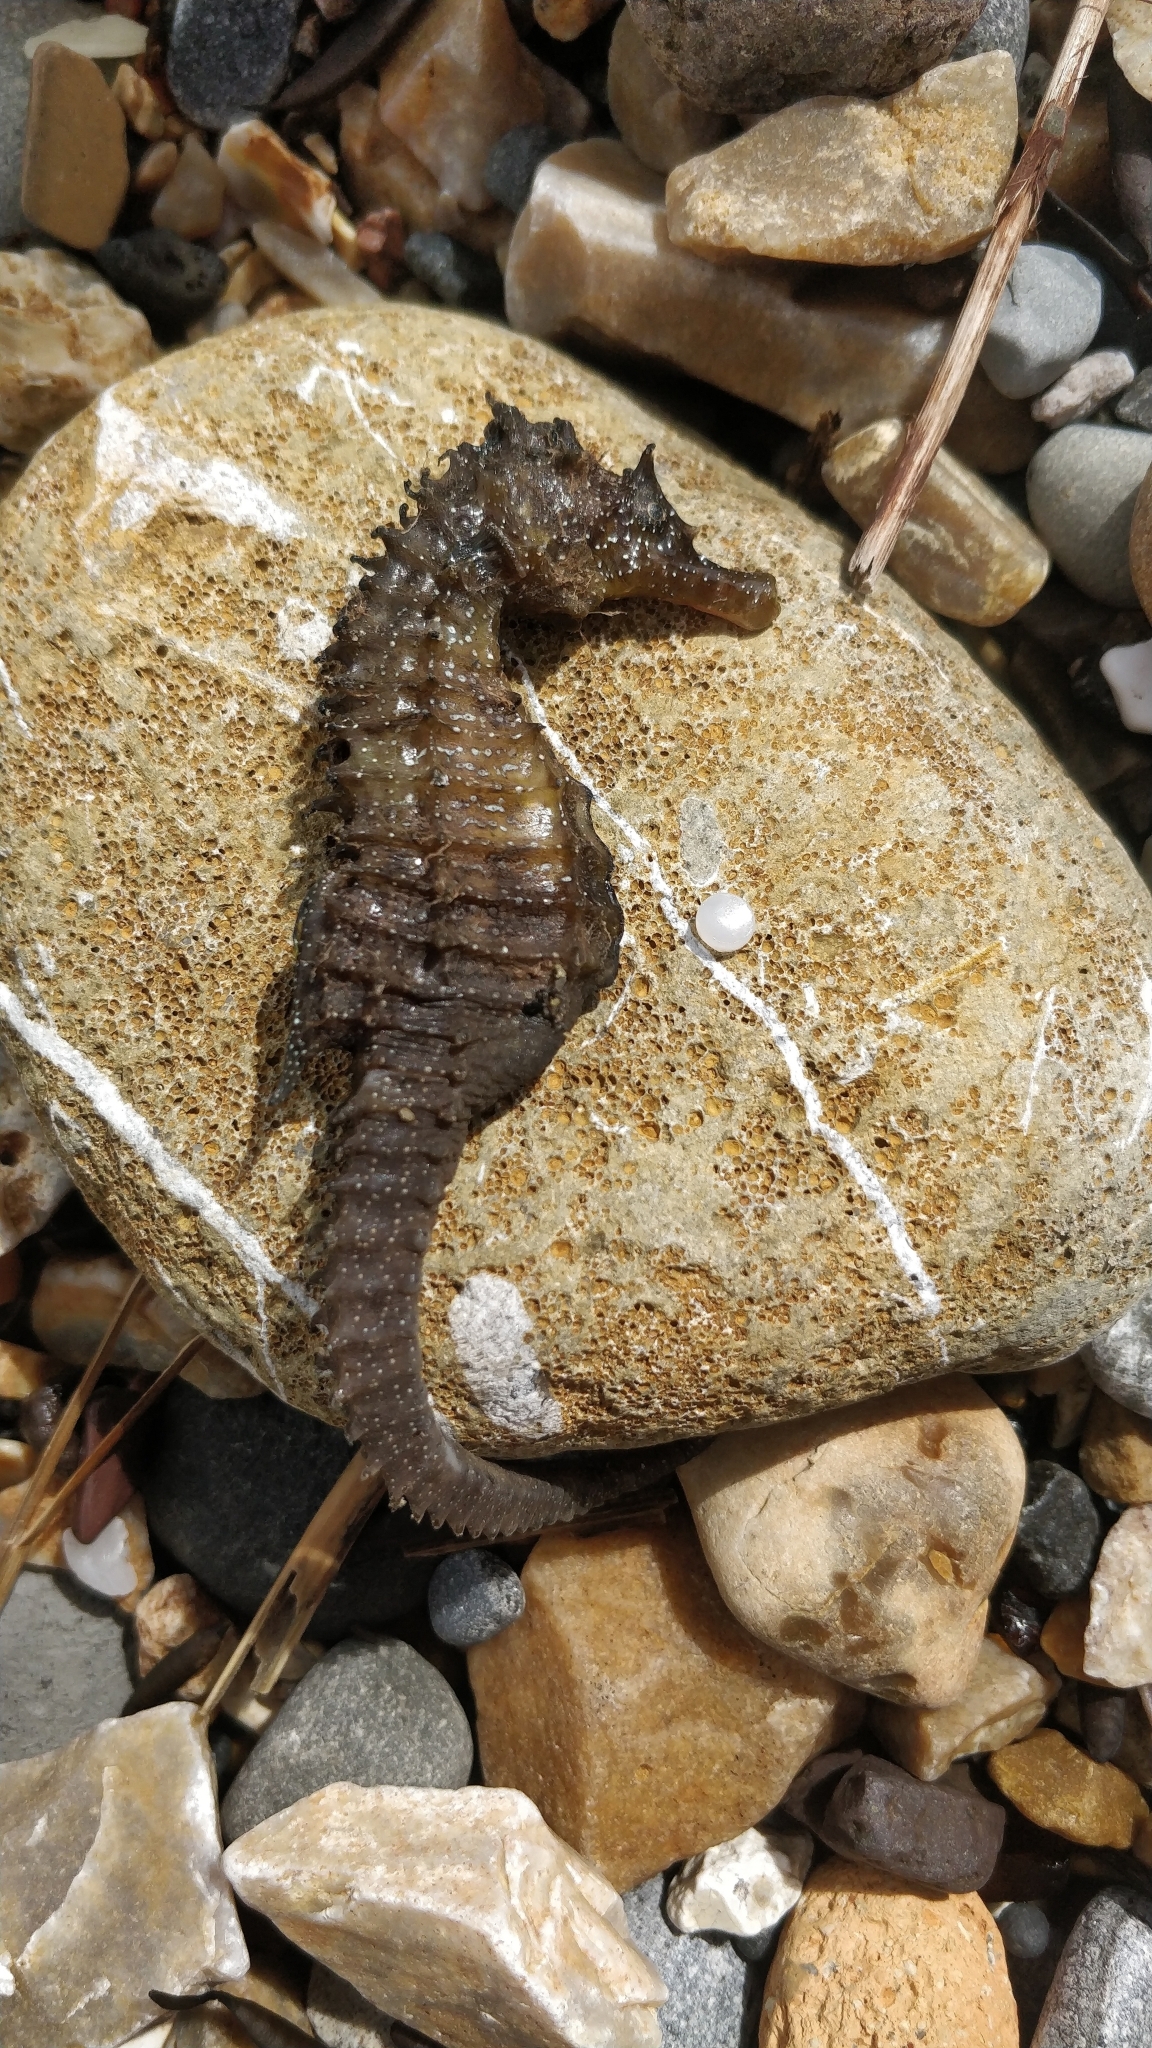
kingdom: Animalia
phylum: Chordata
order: Syngnathiformes
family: Syngnathidae
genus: Hippocampus
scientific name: Hippocampus guttulatus
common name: Long-snouted seahorse
